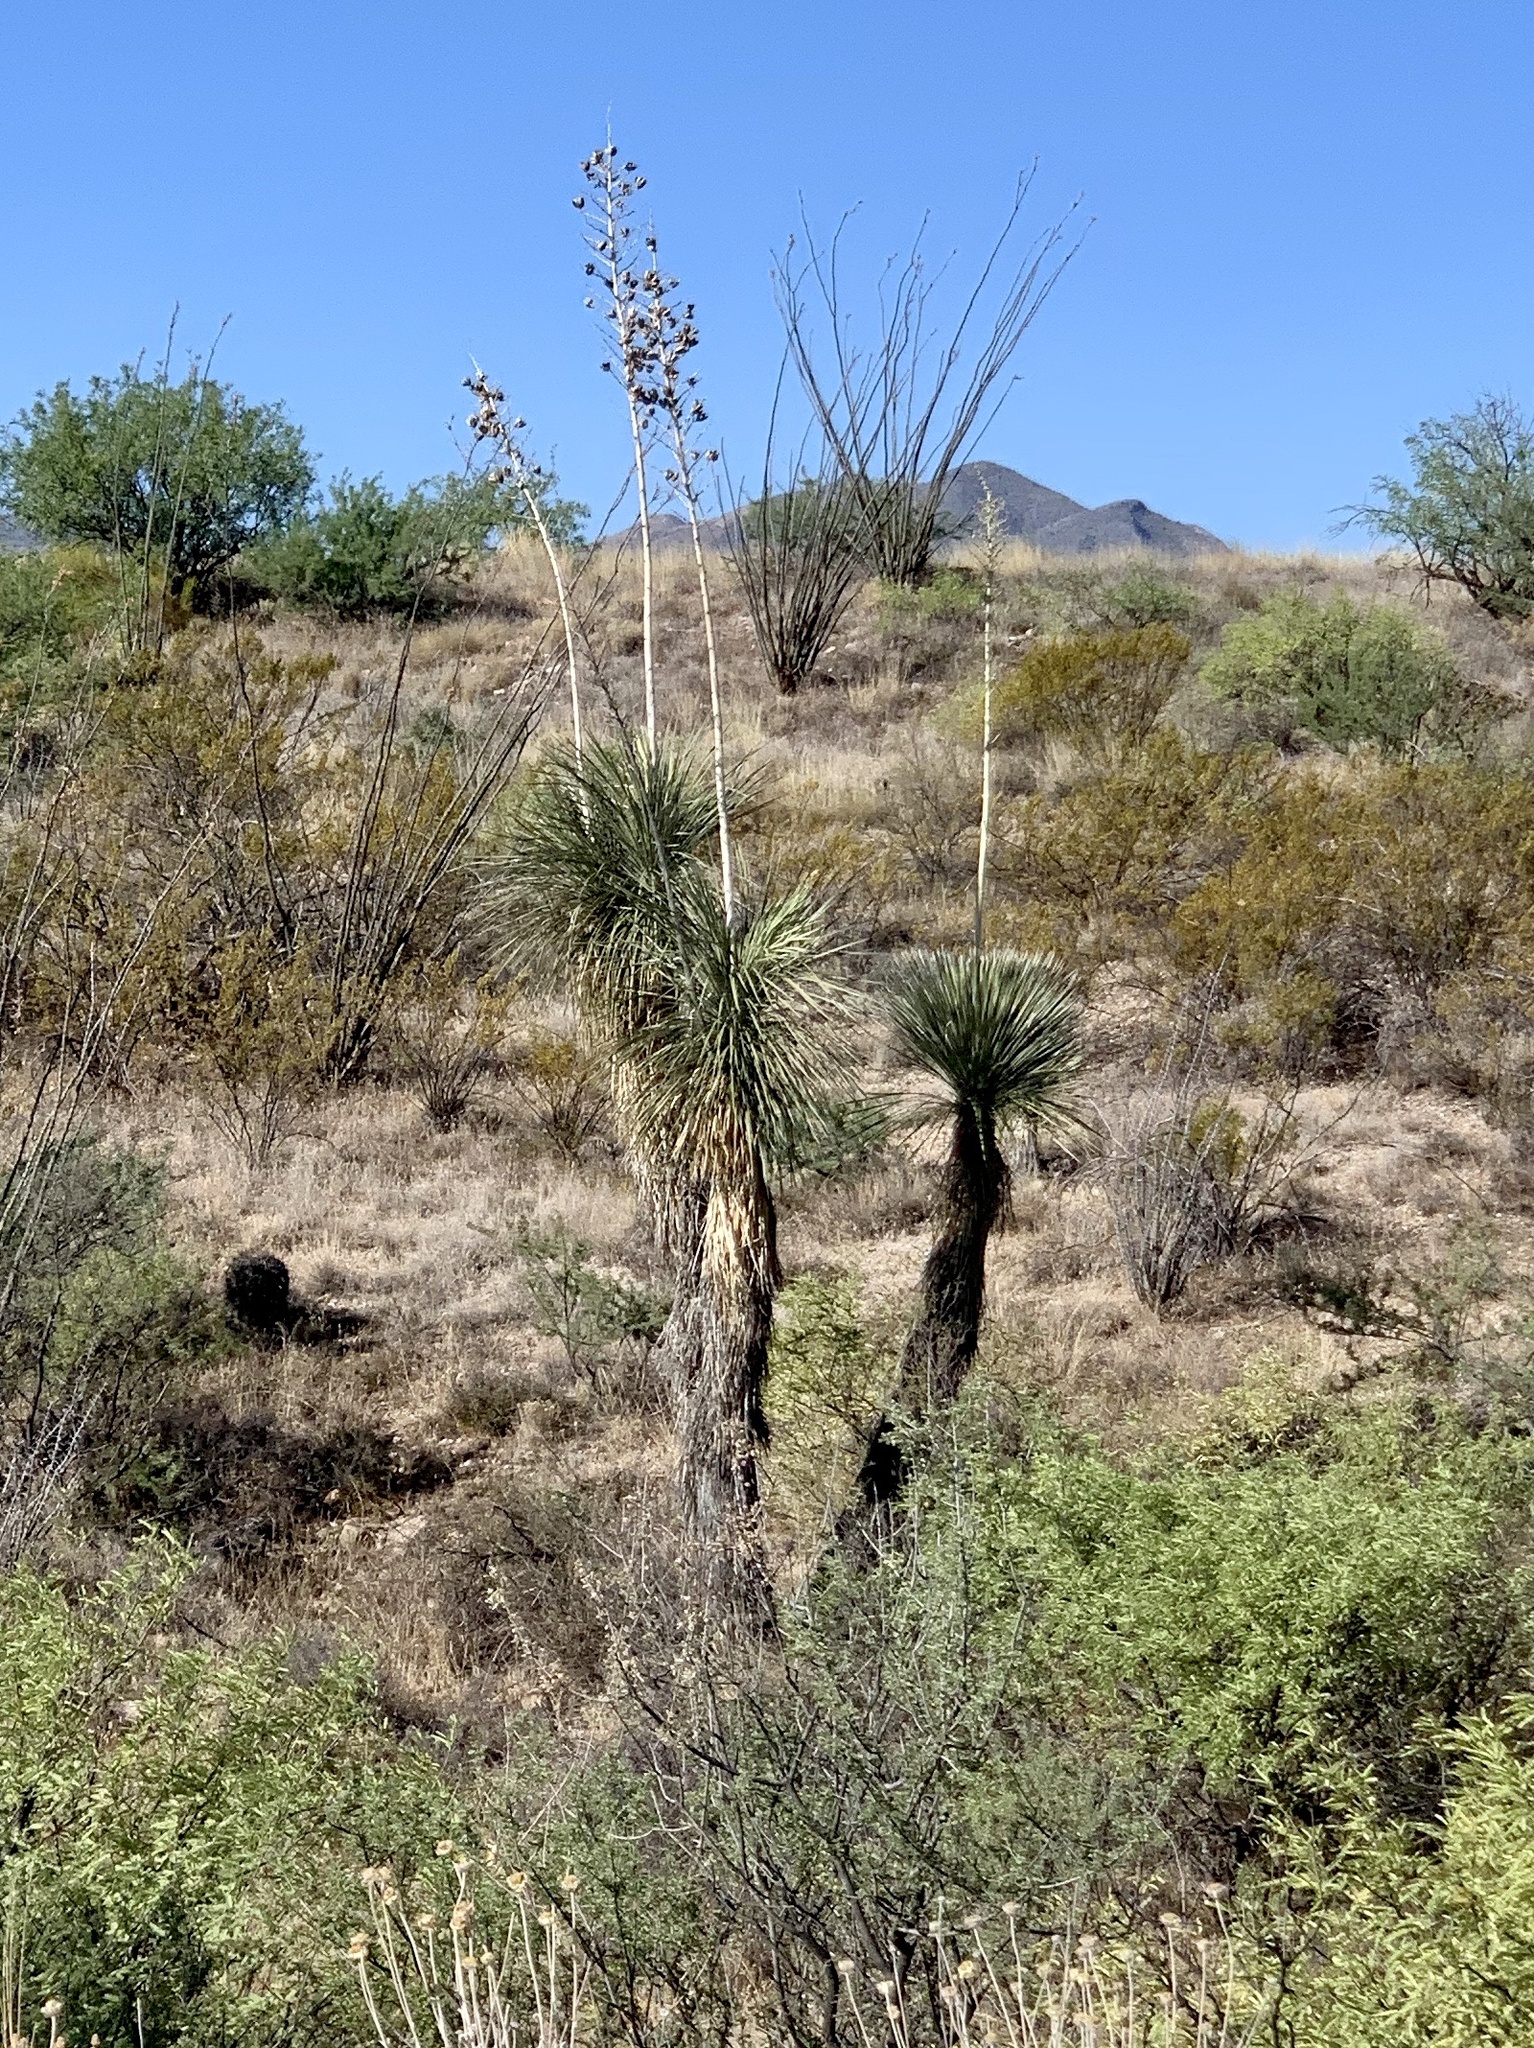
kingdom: Plantae
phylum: Tracheophyta
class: Liliopsida
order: Asparagales
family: Asparagaceae
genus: Yucca
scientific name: Yucca elata
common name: Palmella
